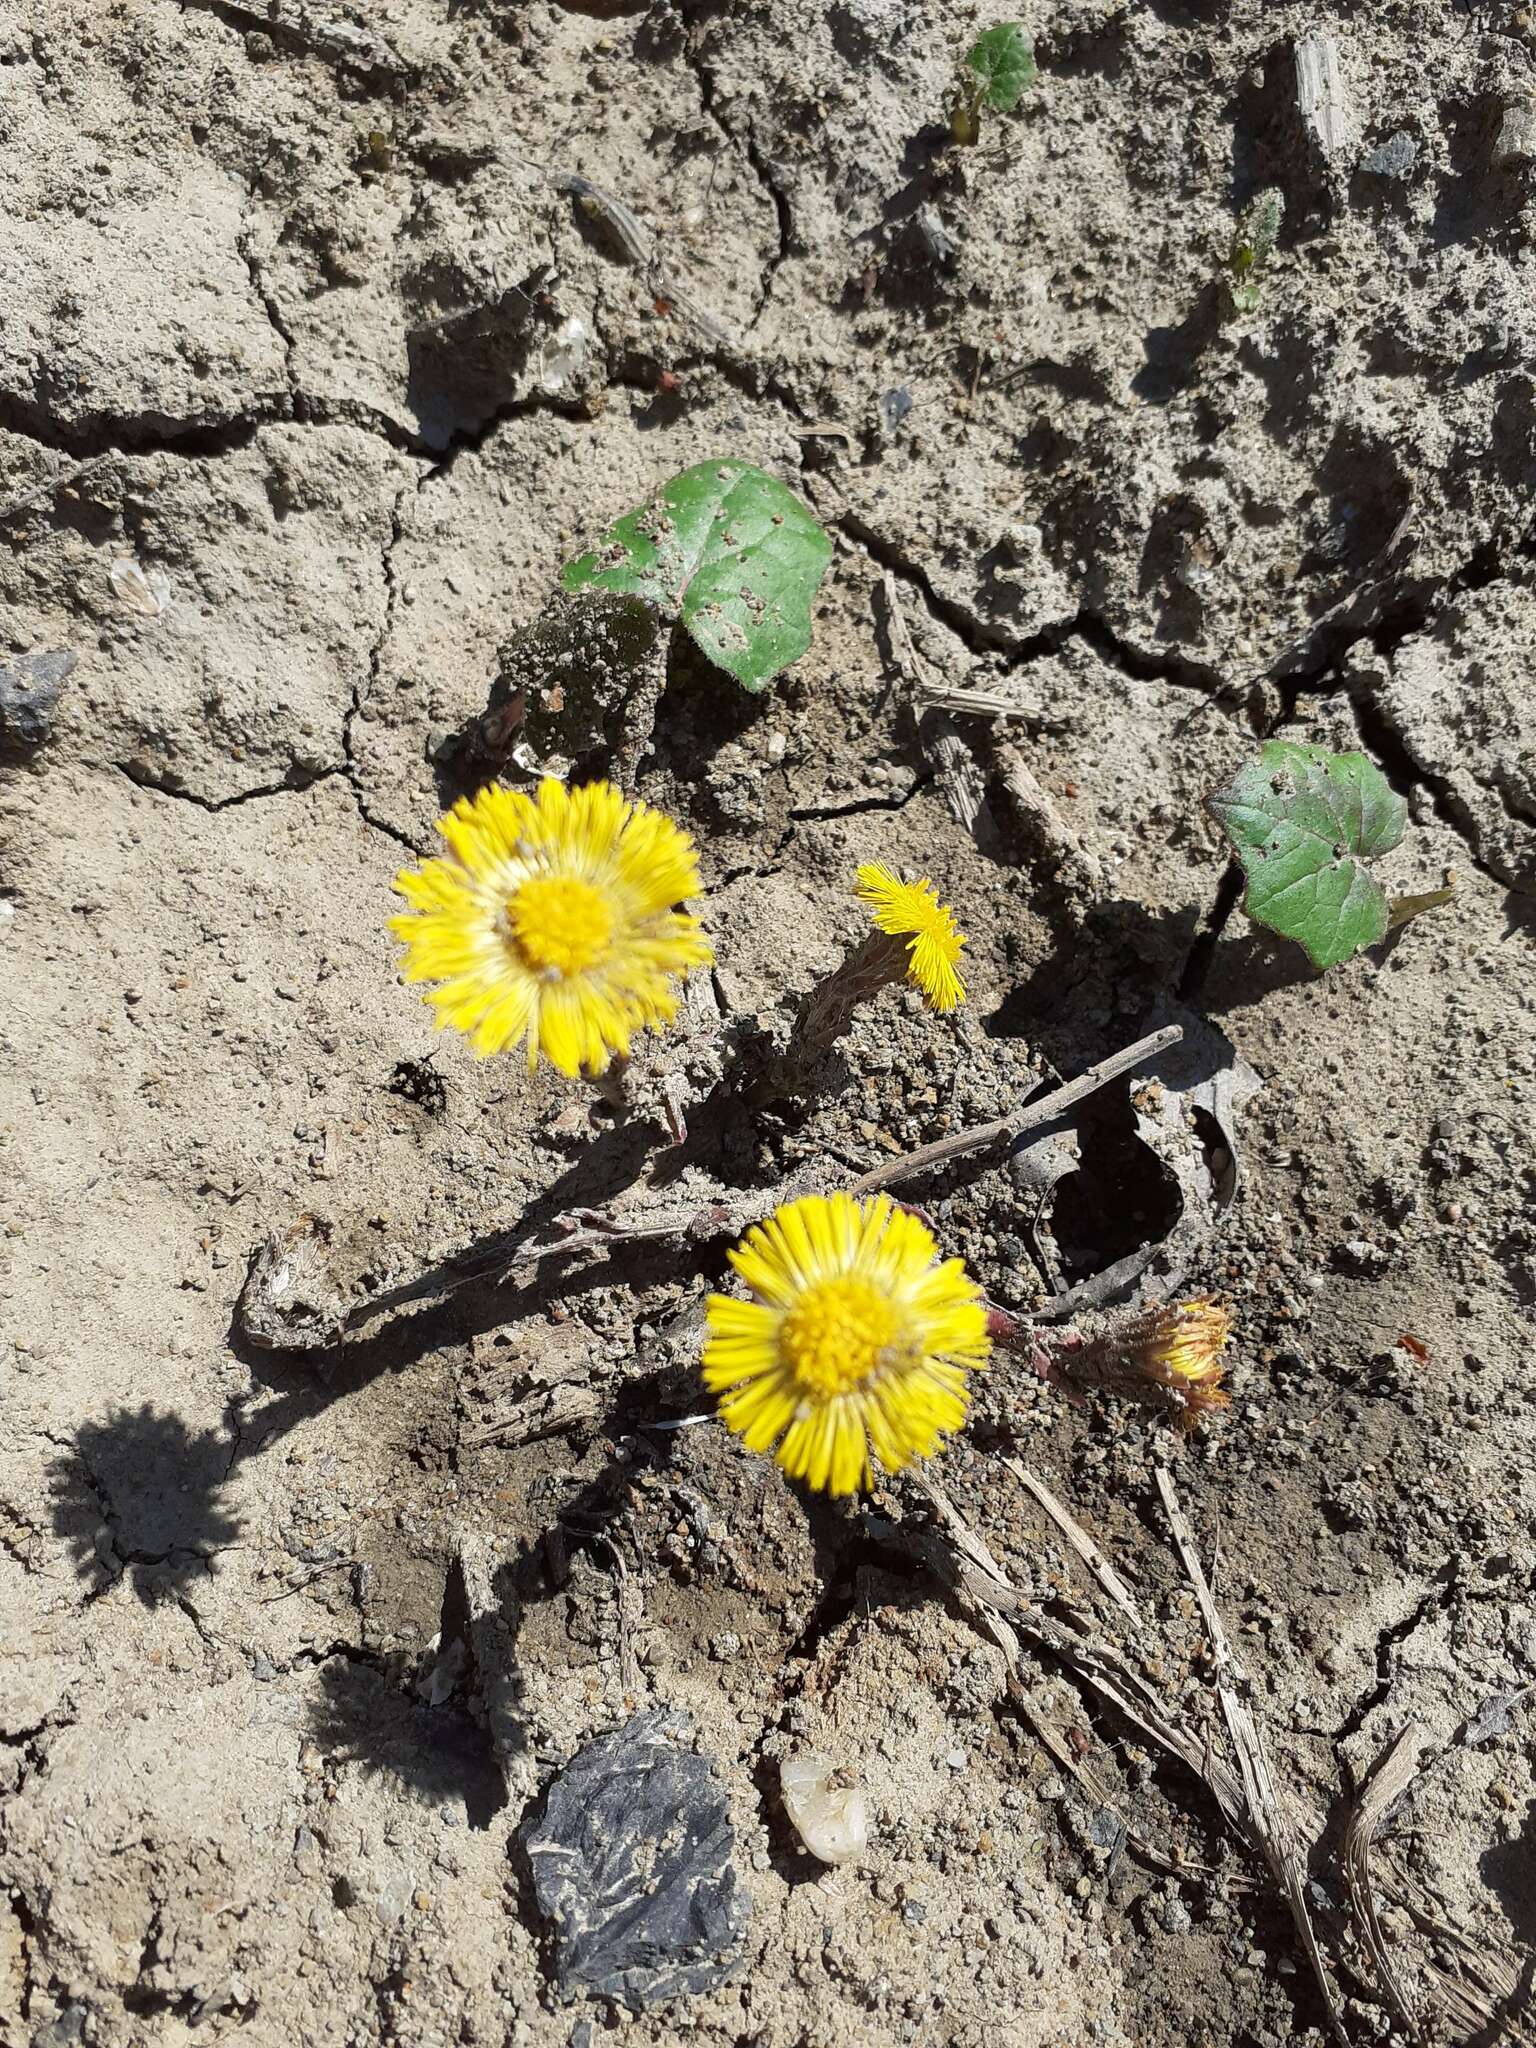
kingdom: Plantae
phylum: Tracheophyta
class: Magnoliopsida
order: Asterales
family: Asteraceae
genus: Tussilago
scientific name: Tussilago farfara
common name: Coltsfoot
